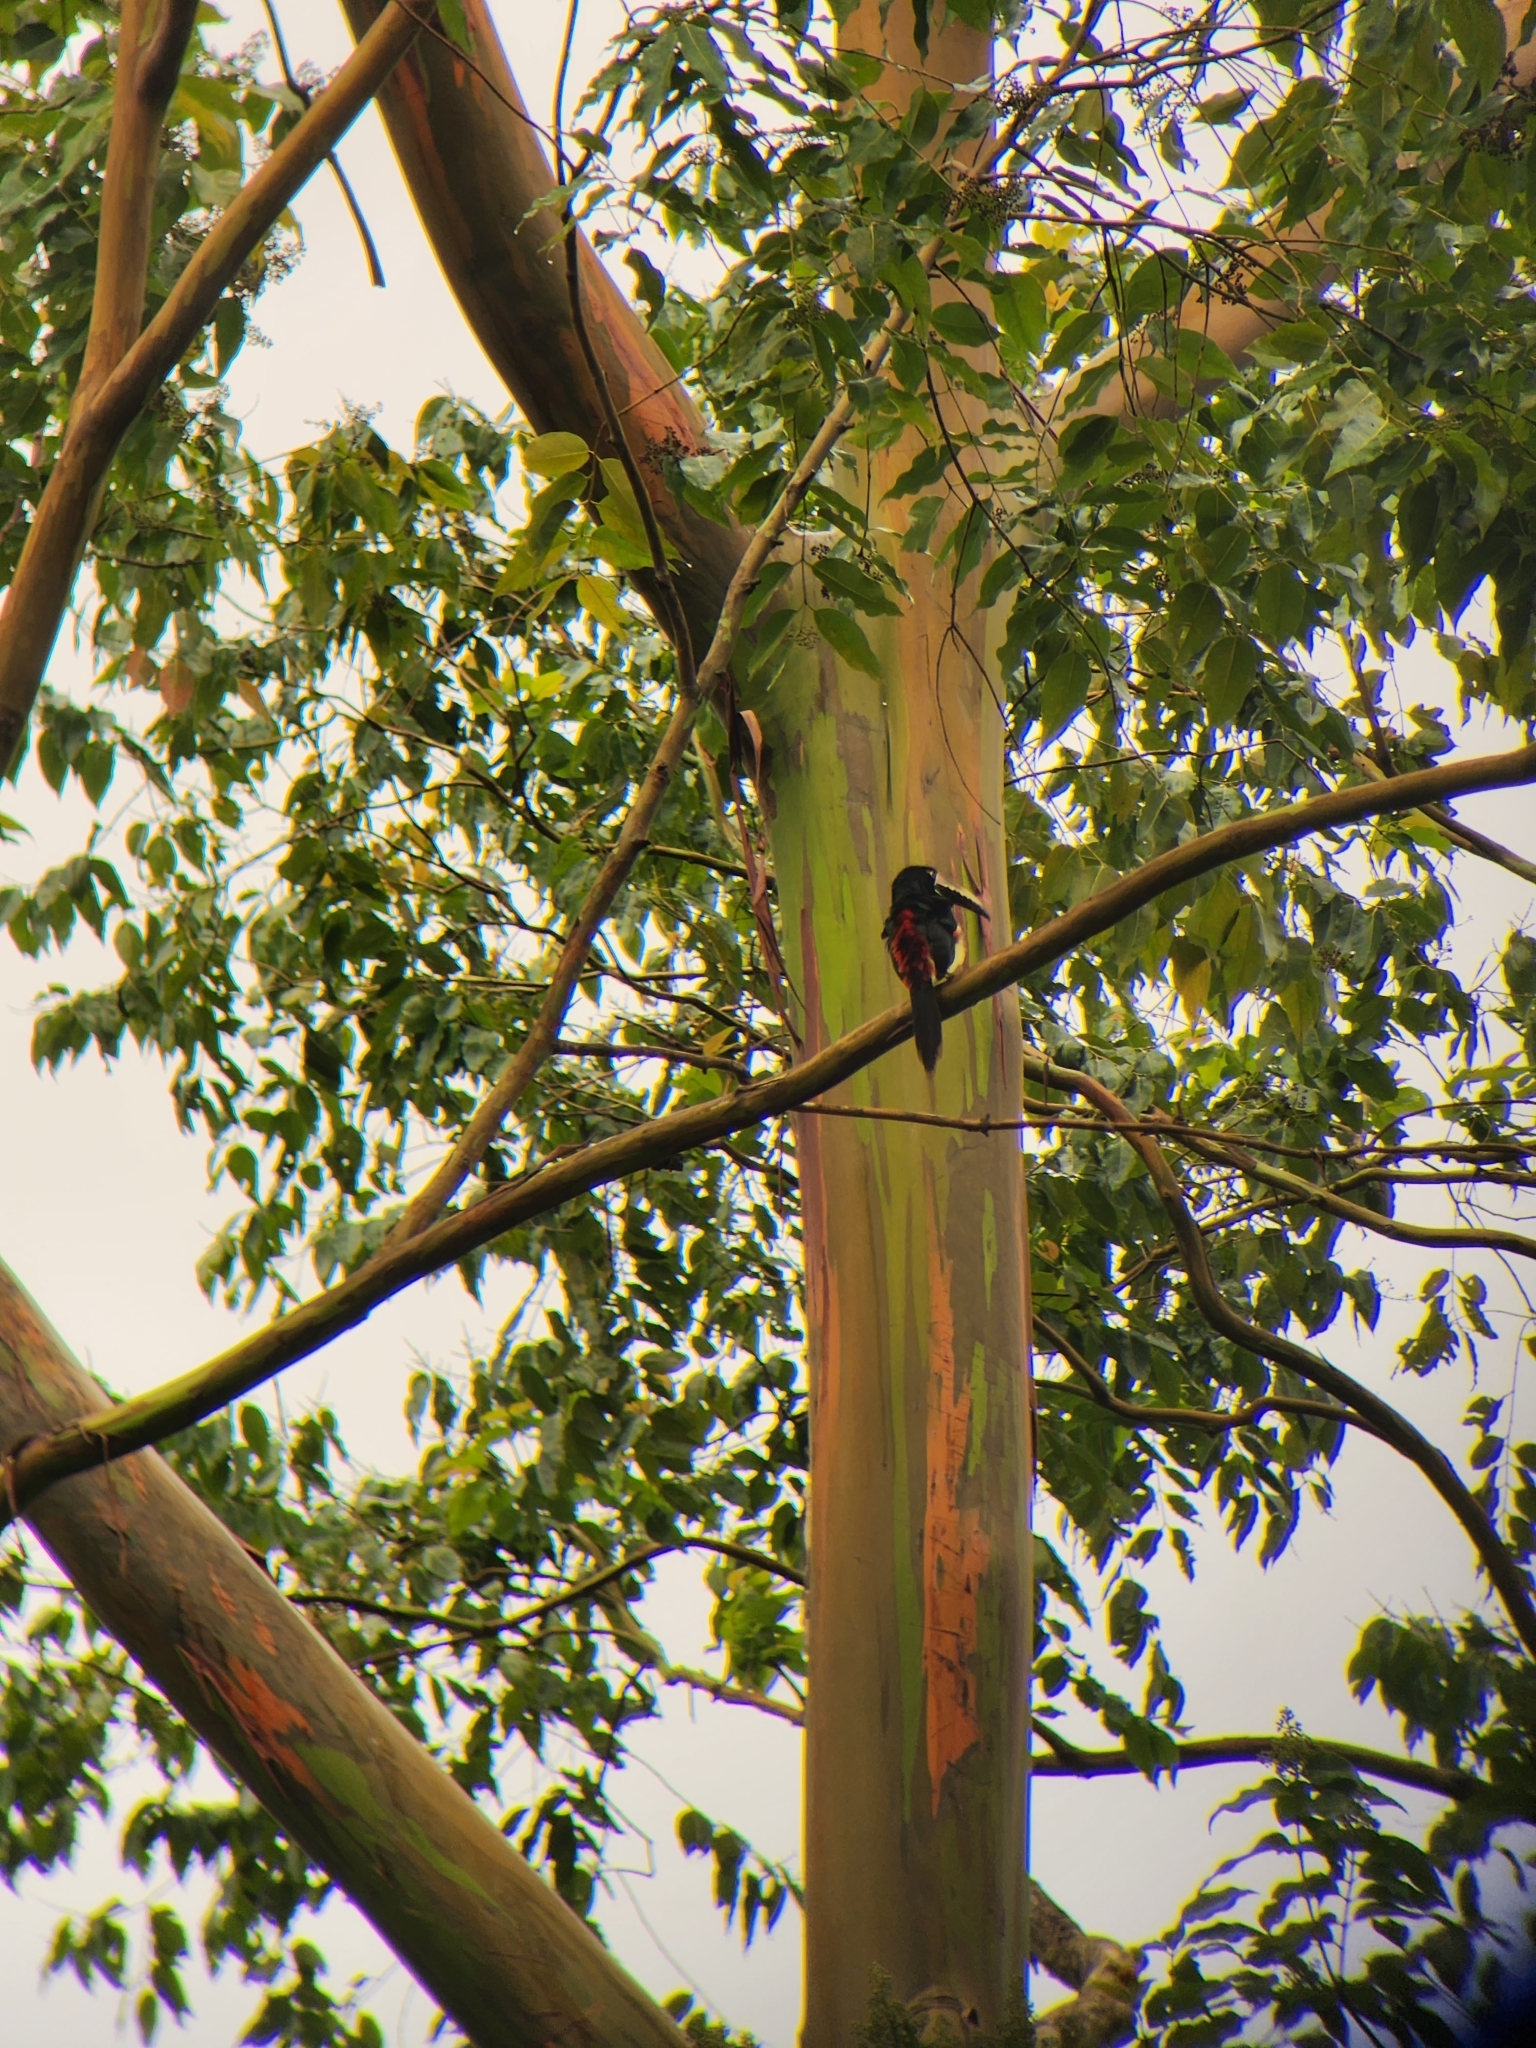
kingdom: Animalia
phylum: Chordata
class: Aves
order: Piciformes
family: Ramphastidae
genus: Pteroglossus
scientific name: Pteroglossus torquatus
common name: Collared aracari
